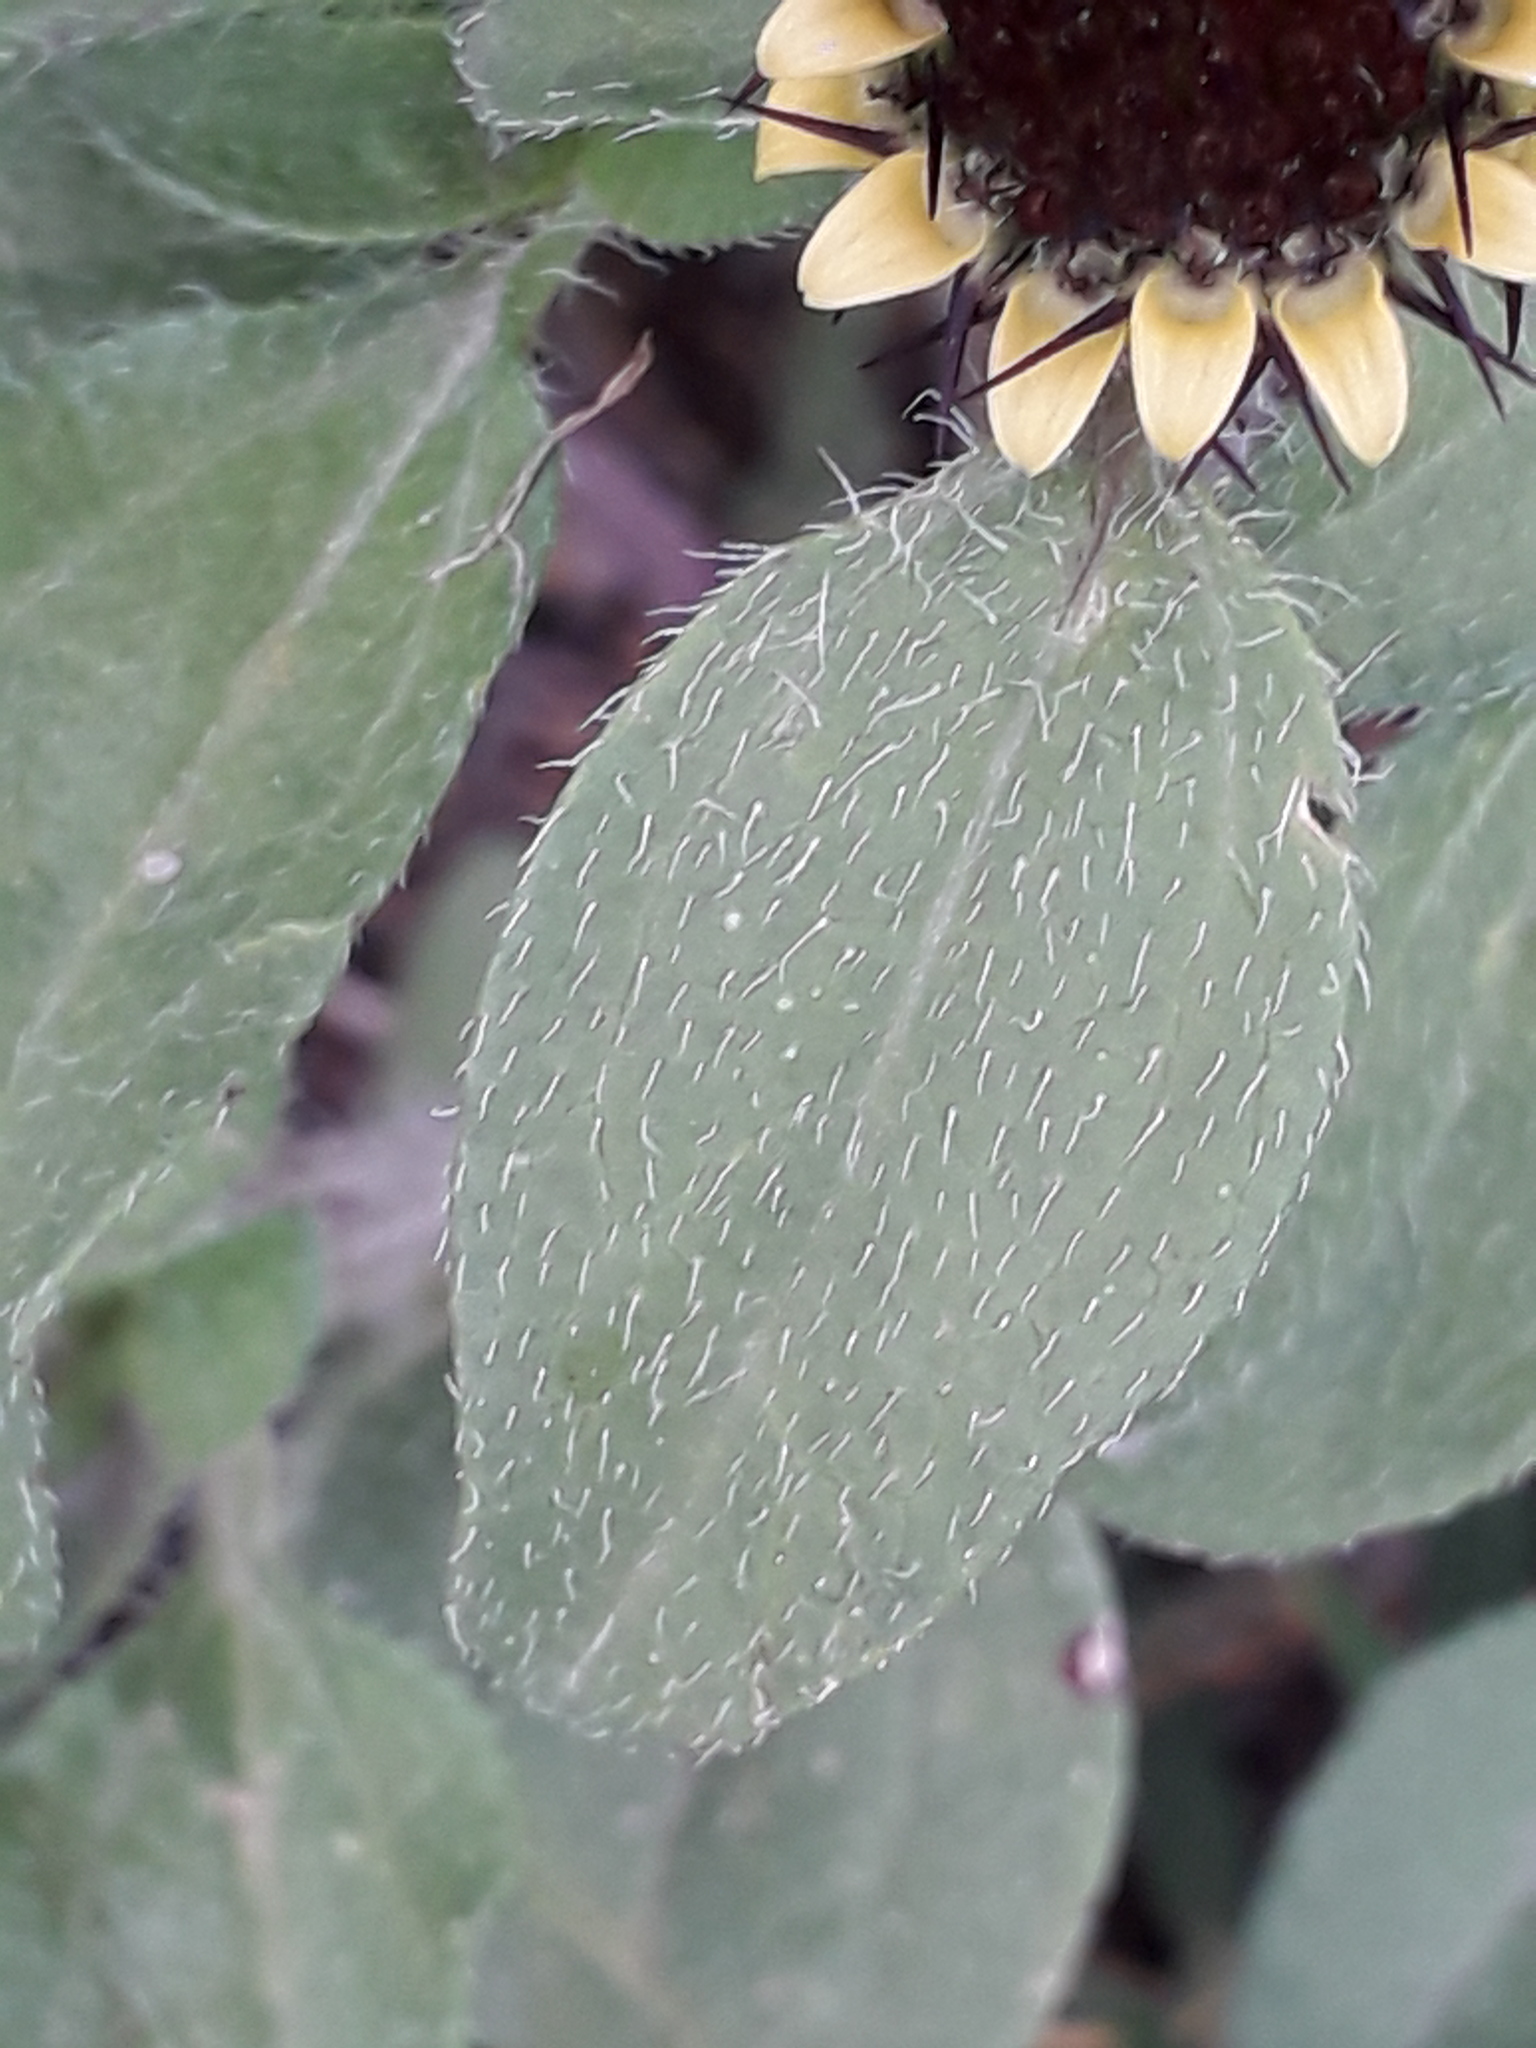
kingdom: Plantae
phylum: Tracheophyta
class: Magnoliopsida
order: Asterales
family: Asteraceae
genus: Sanvitalia
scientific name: Sanvitalia angustifolia
